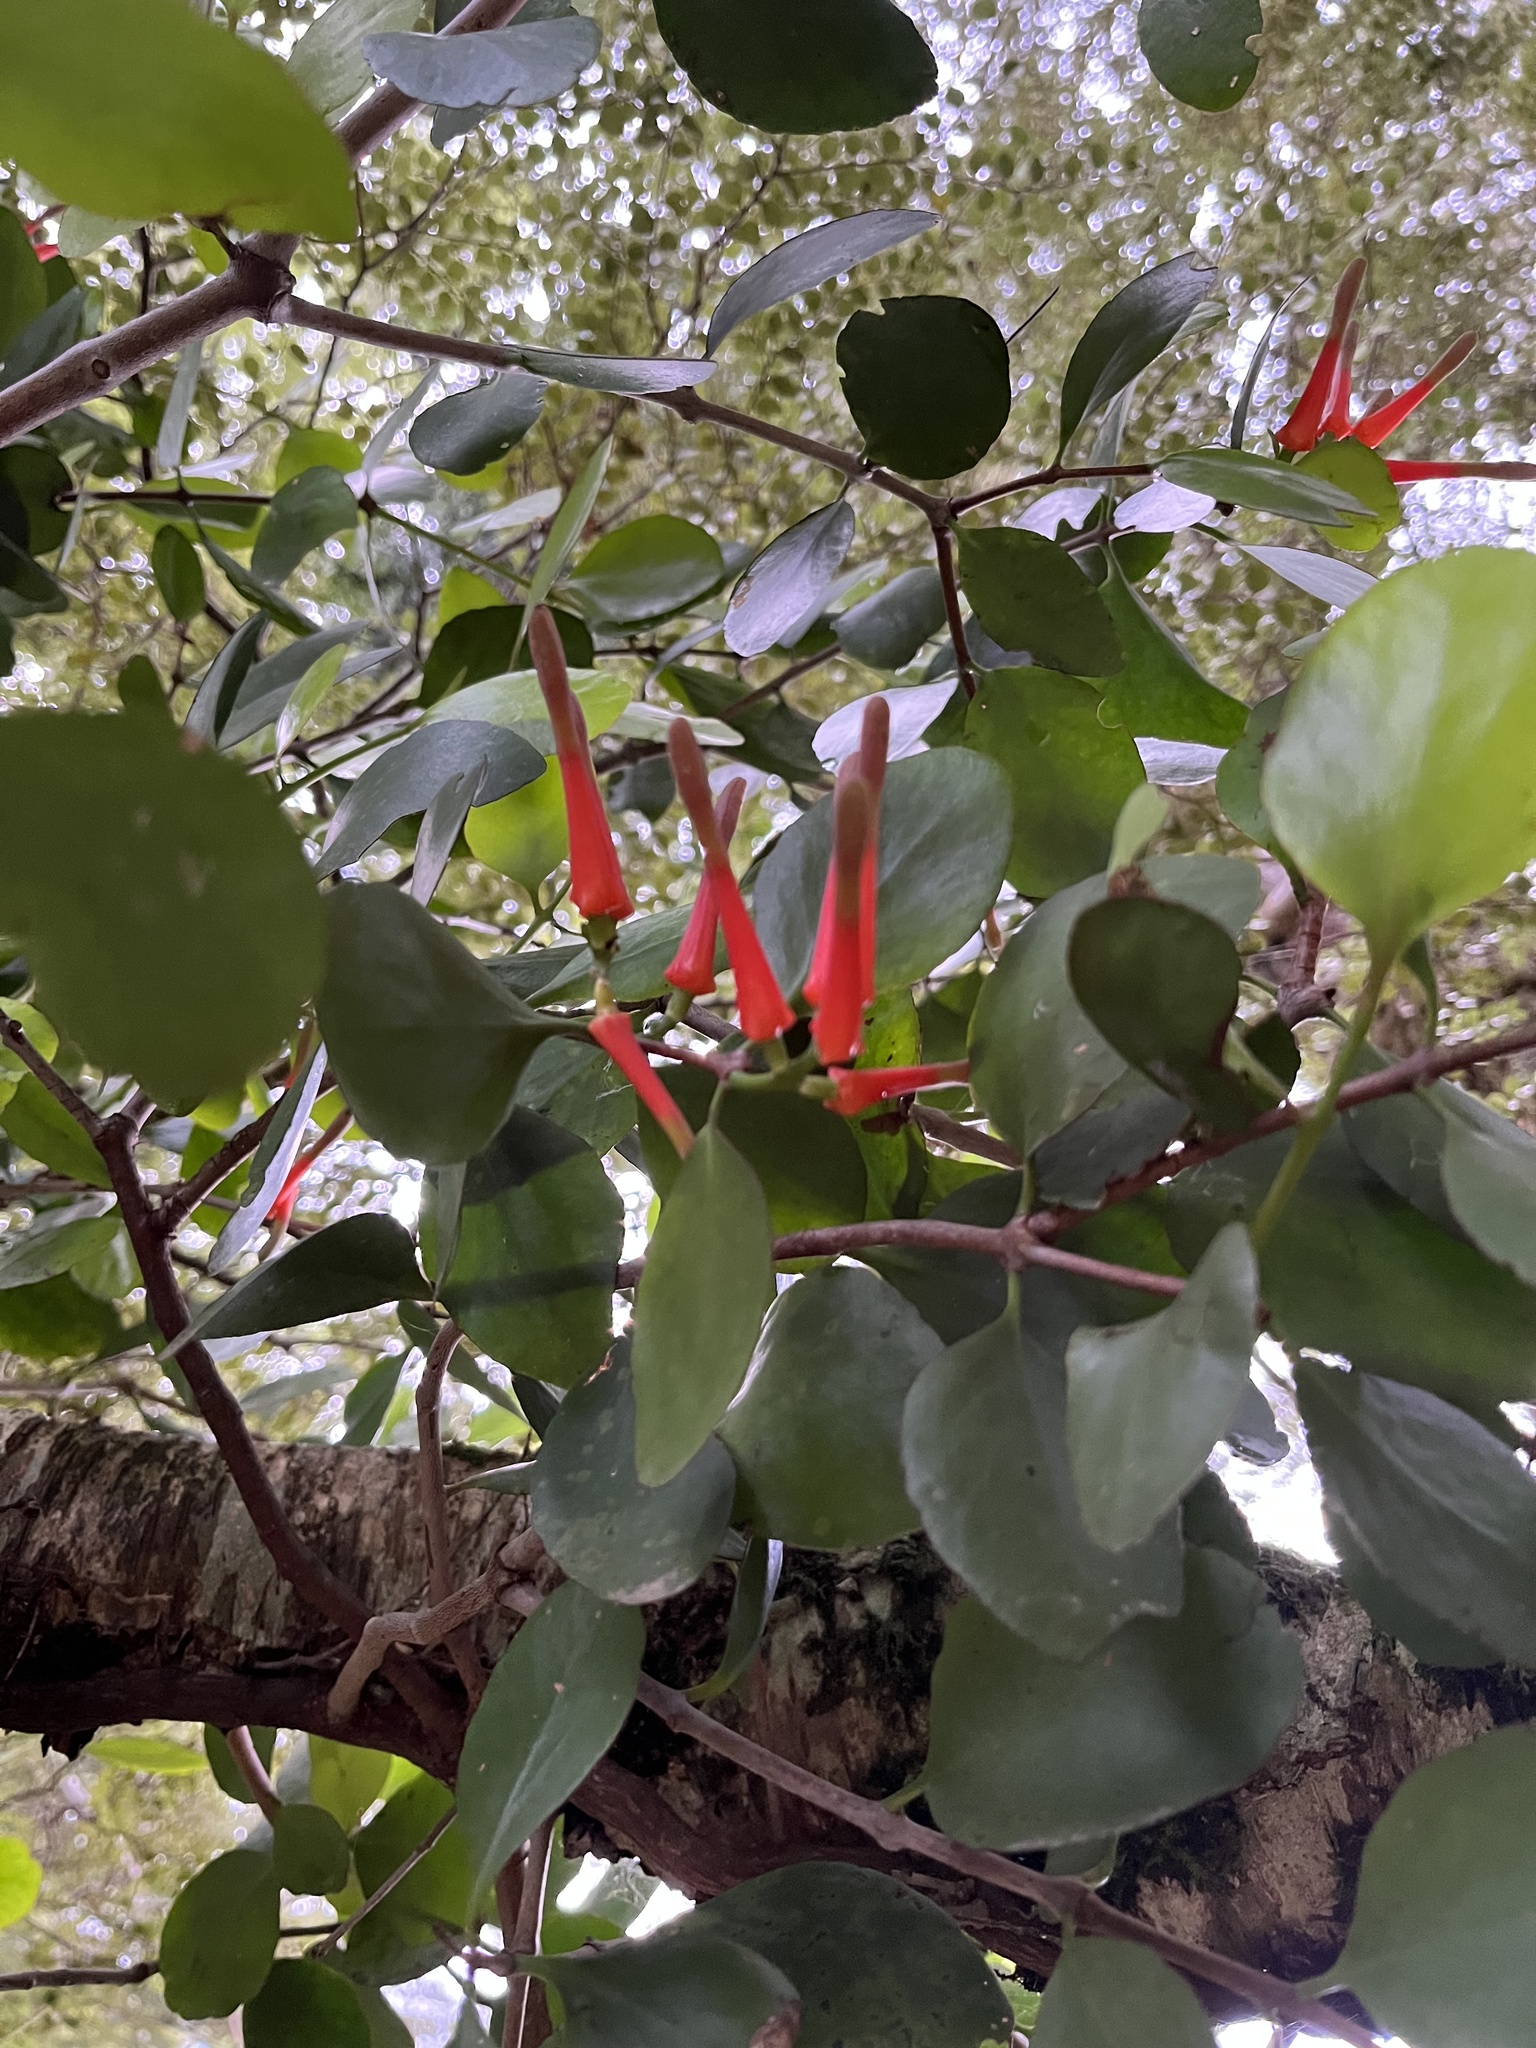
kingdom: Plantae
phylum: Tracheophyta
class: Magnoliopsida
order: Santalales
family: Loranthaceae
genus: Peraxilla
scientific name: Peraxilla colensoi
